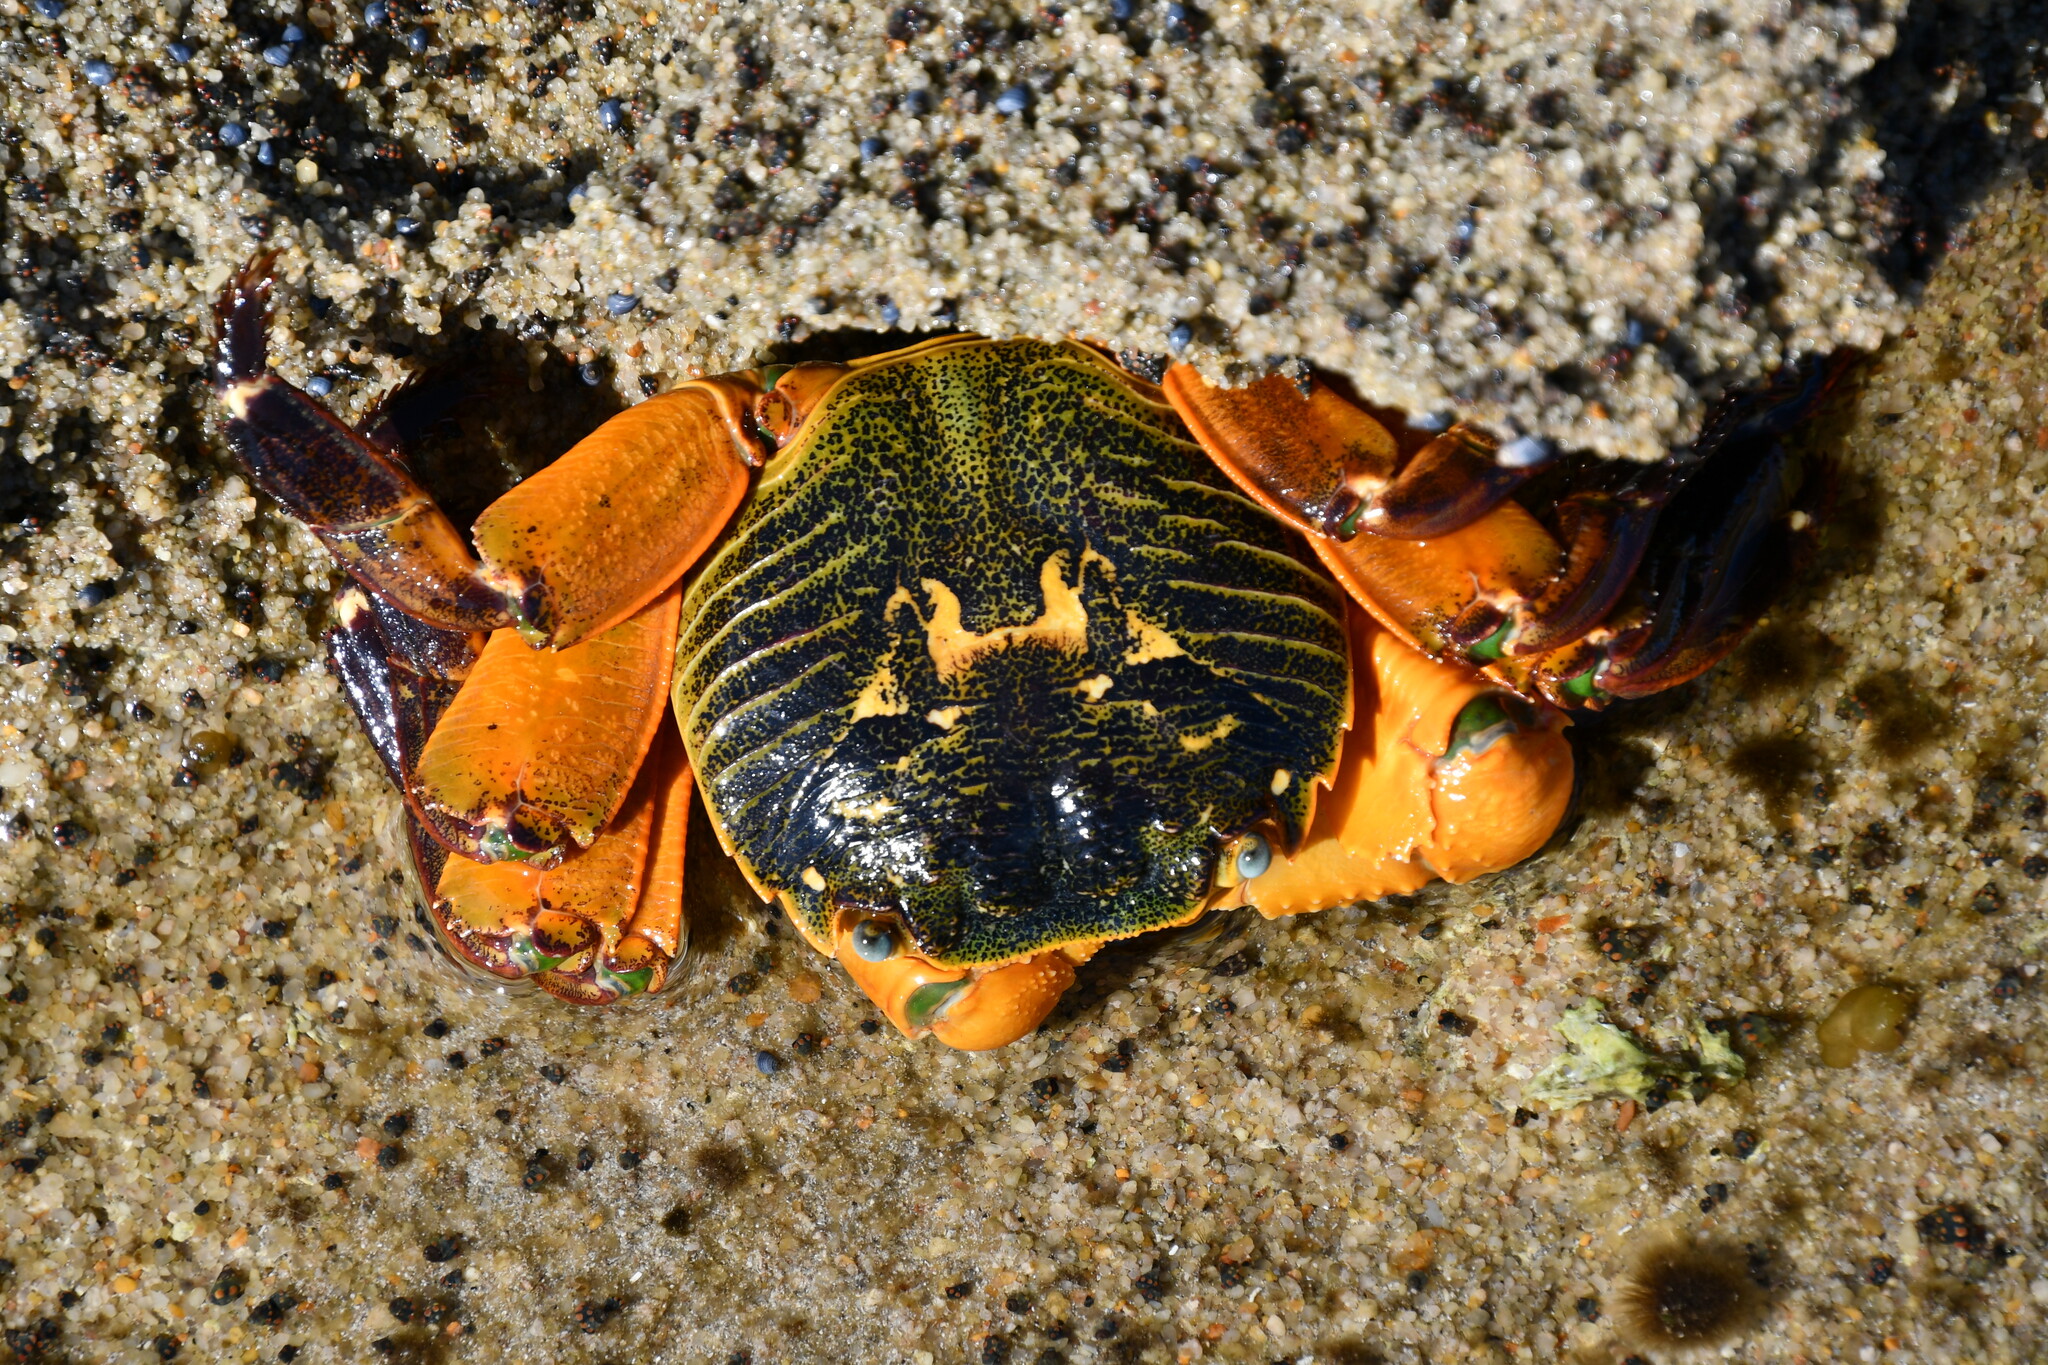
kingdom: Animalia
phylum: Arthropoda
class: Malacostraca
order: Decapoda
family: Grapsidae
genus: Leptograpsus
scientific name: Leptograpsus variegatus
